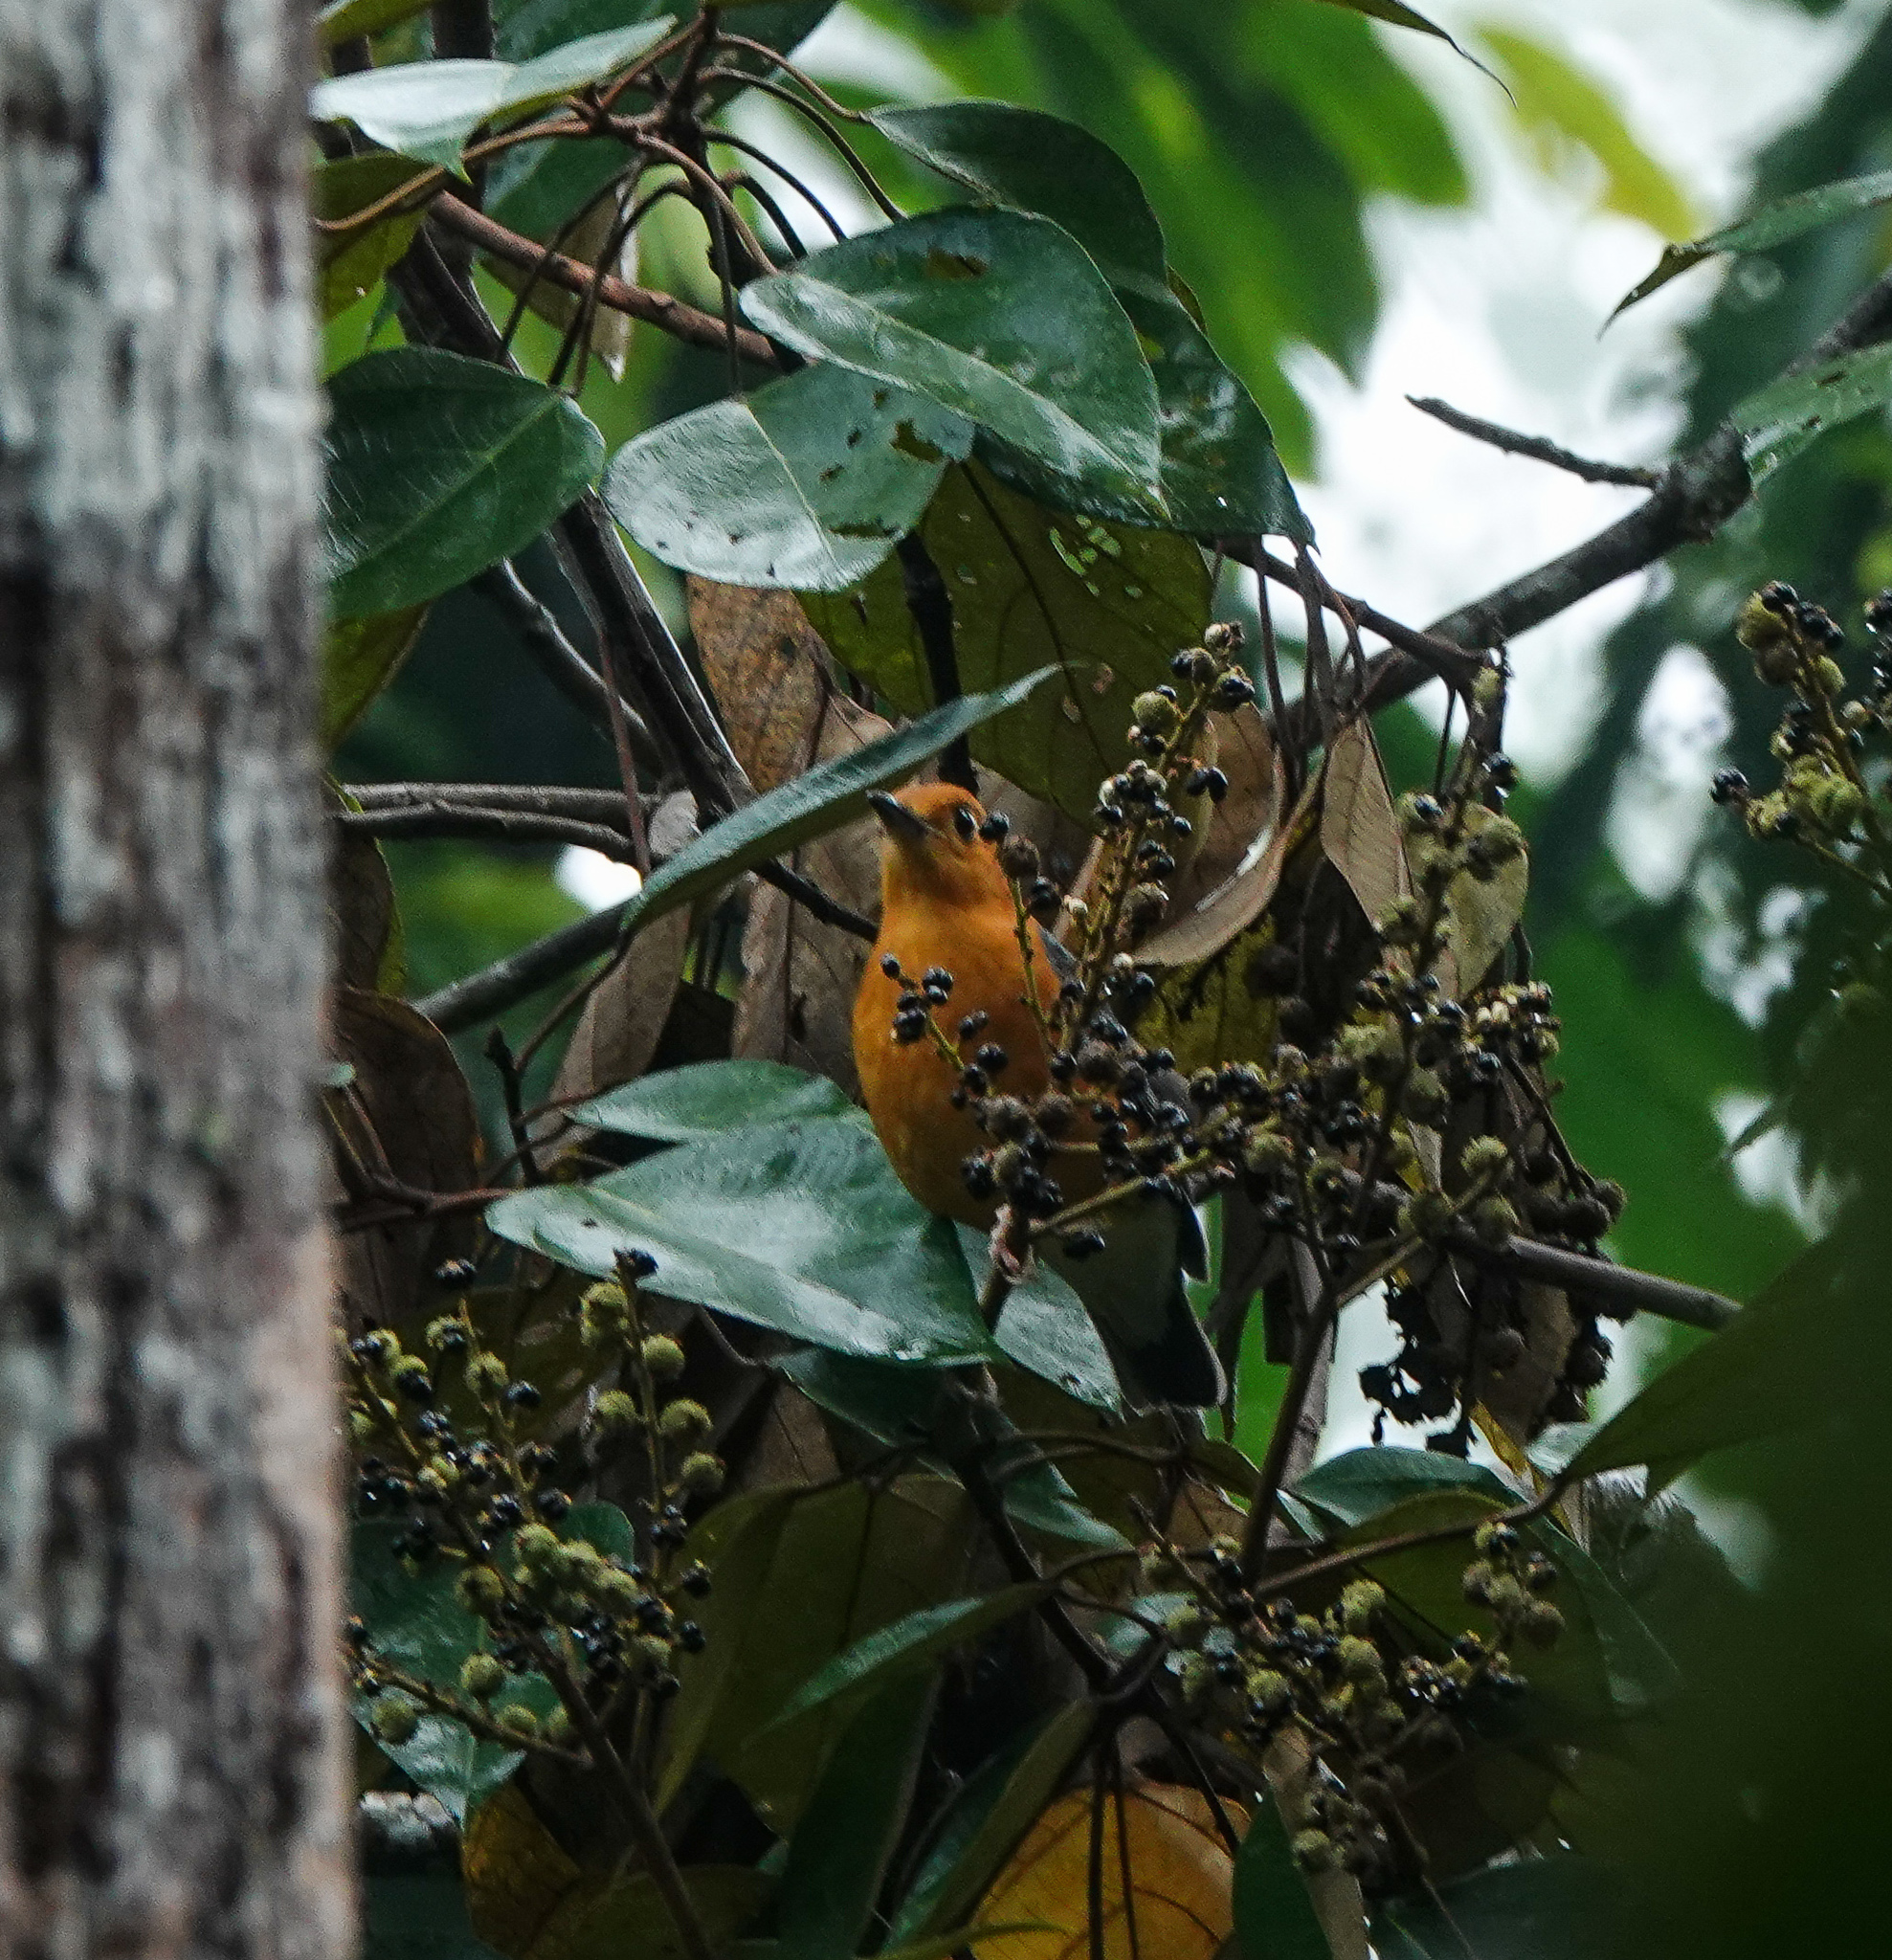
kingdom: Animalia
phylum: Chordata
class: Aves
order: Passeriformes
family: Turdidae
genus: Geokichla
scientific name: Geokichla citrina
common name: Orange-headed thrush
